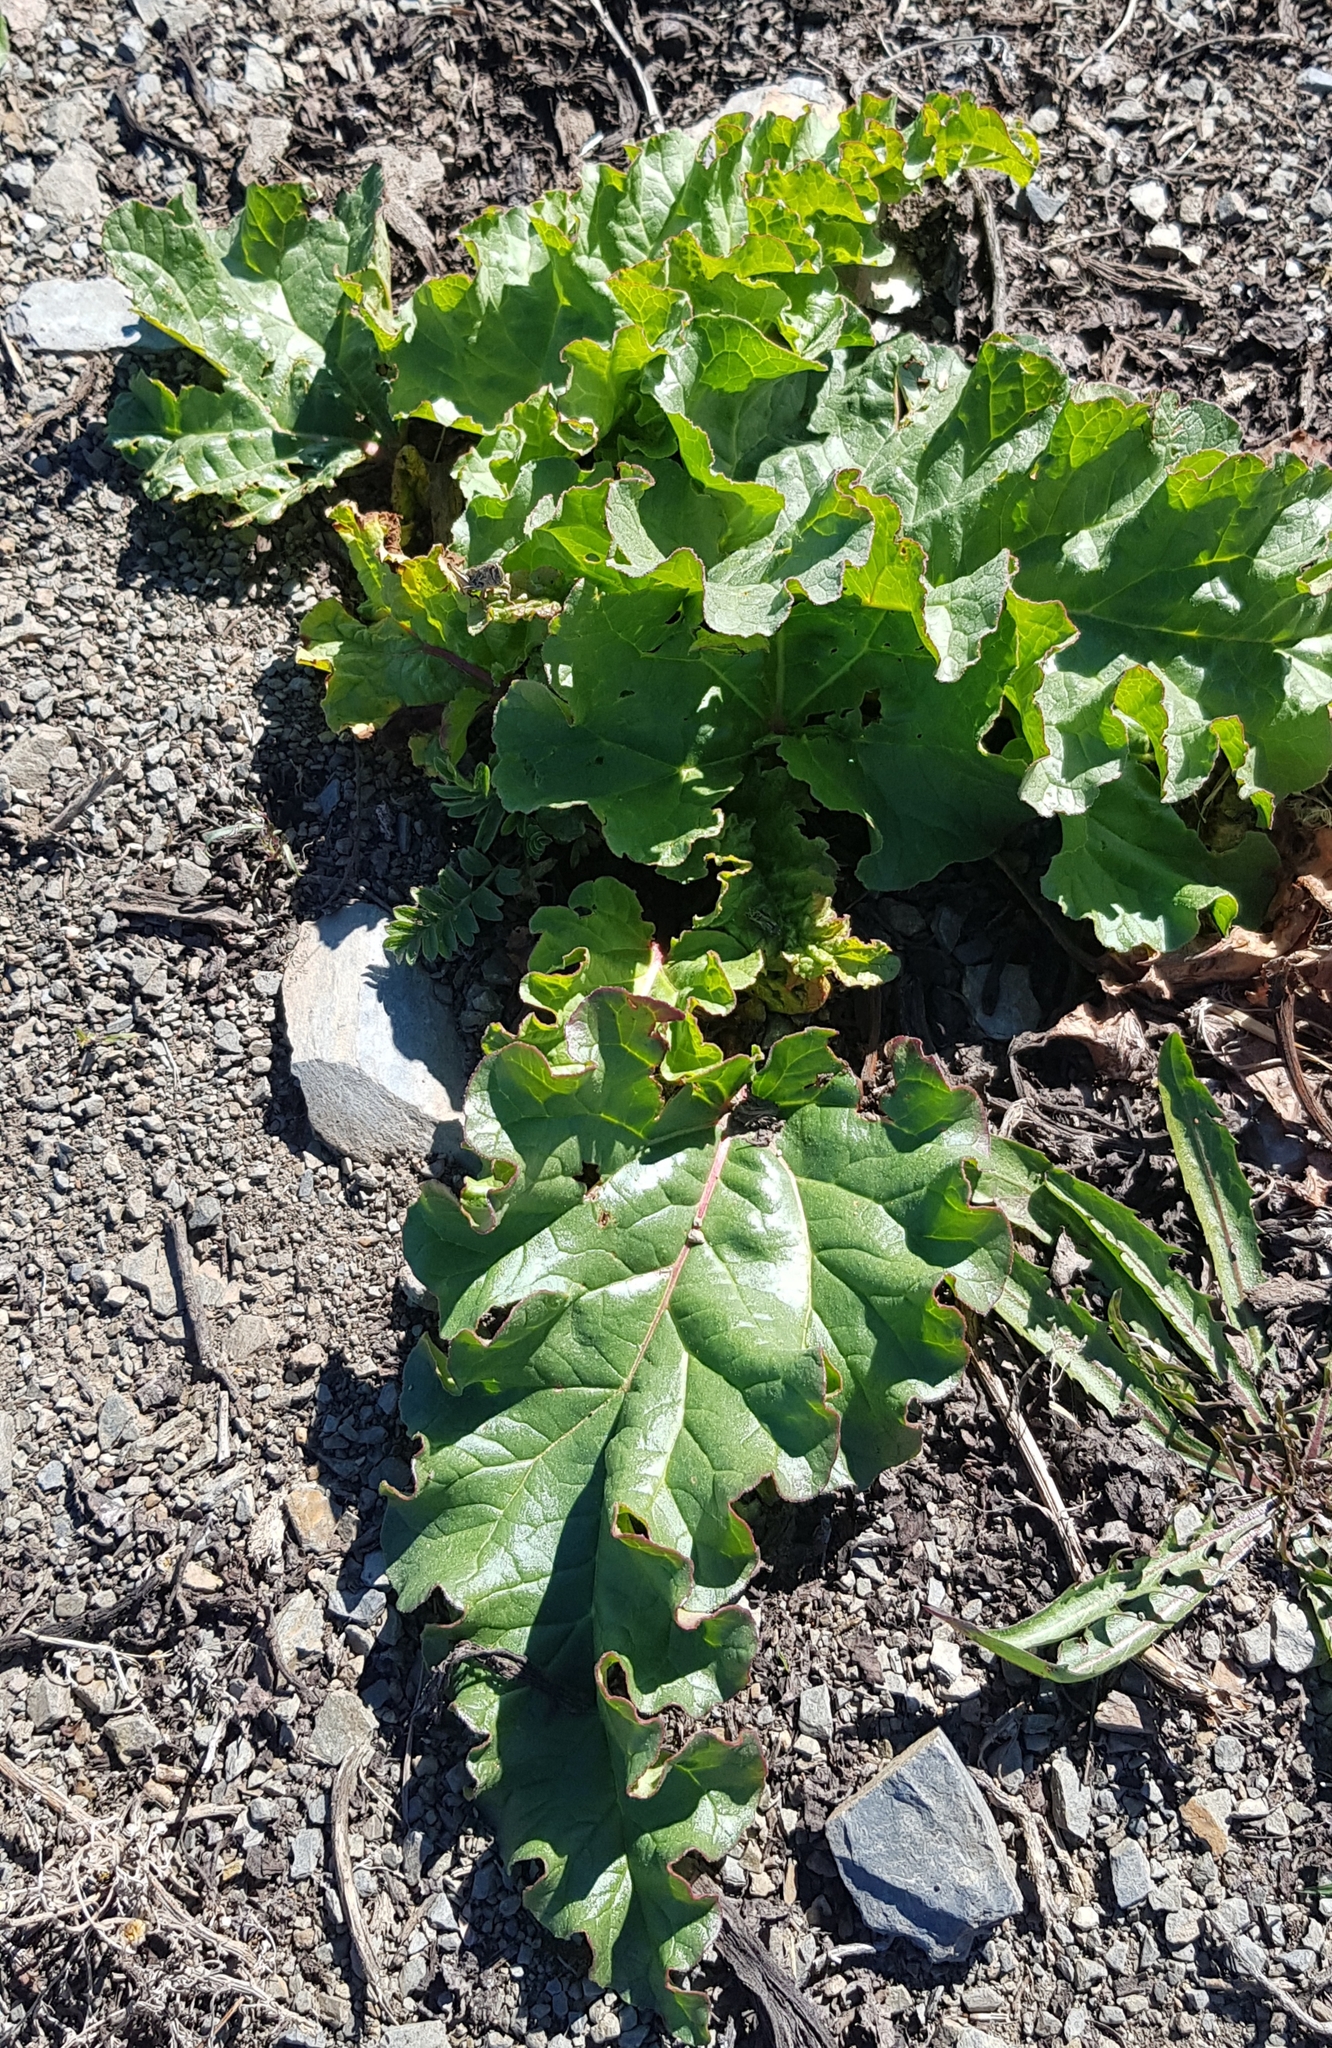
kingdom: Plantae
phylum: Tracheophyta
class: Magnoliopsida
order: Caryophyllales
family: Polygonaceae
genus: Rheum
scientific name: Rheum rhabarbarum
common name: Garden rhubarb
